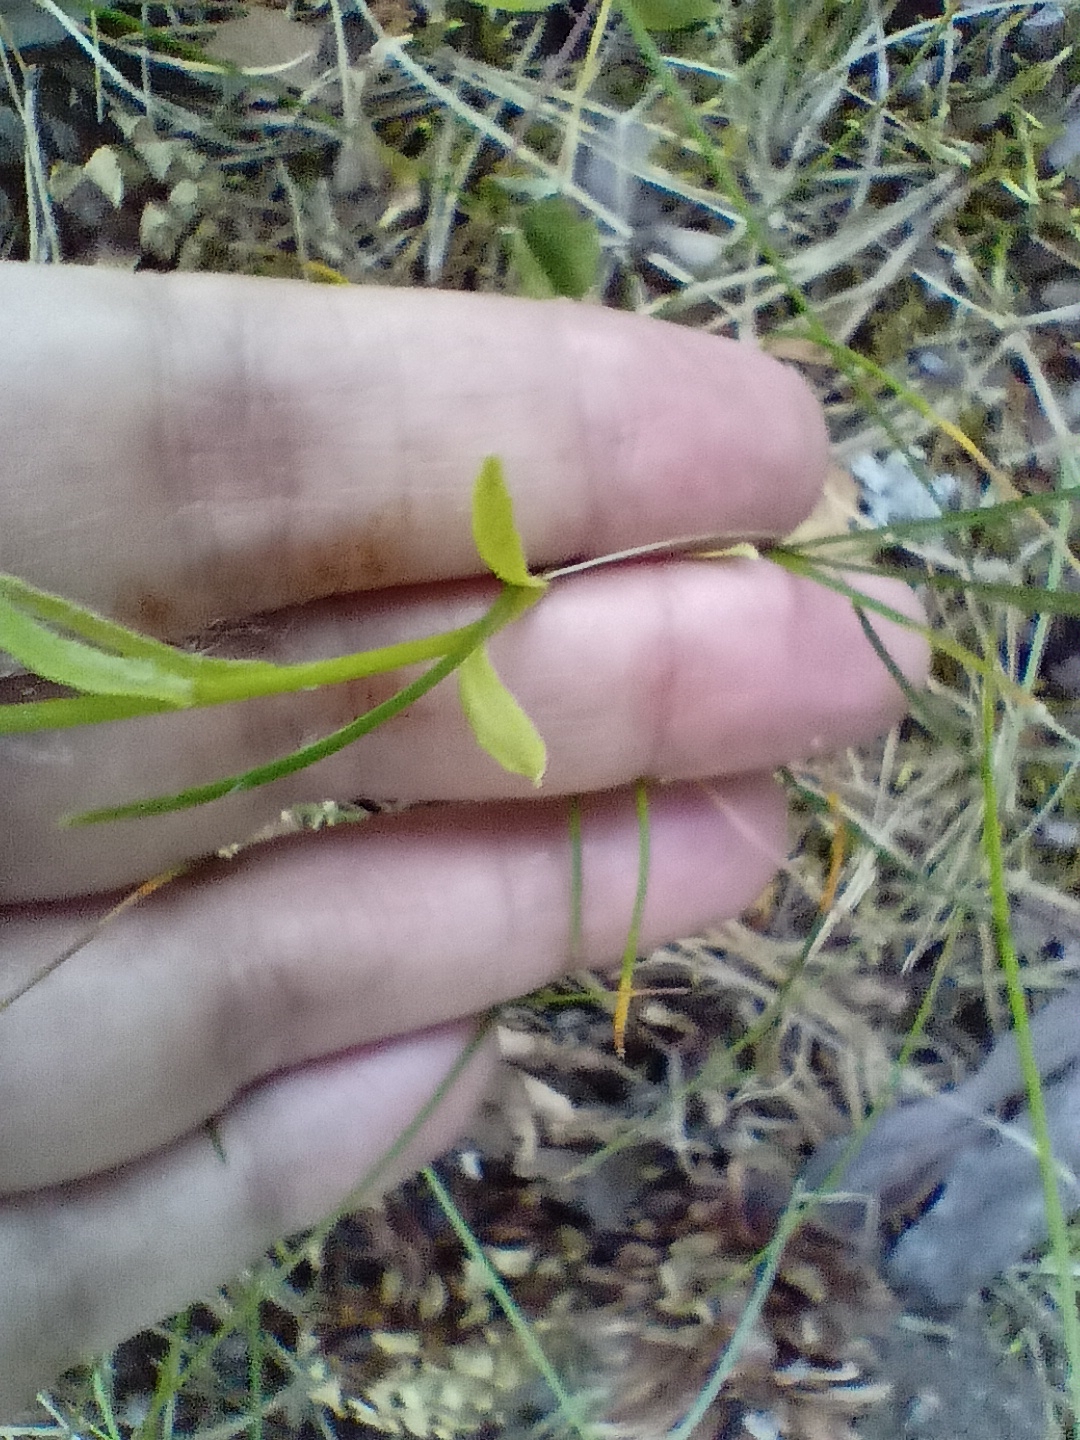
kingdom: Plantae
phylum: Tracheophyta
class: Magnoliopsida
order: Asterales
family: Asteraceae
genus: Pilosella
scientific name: Pilosella officinarum
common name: Mouse-ear hawkweed
